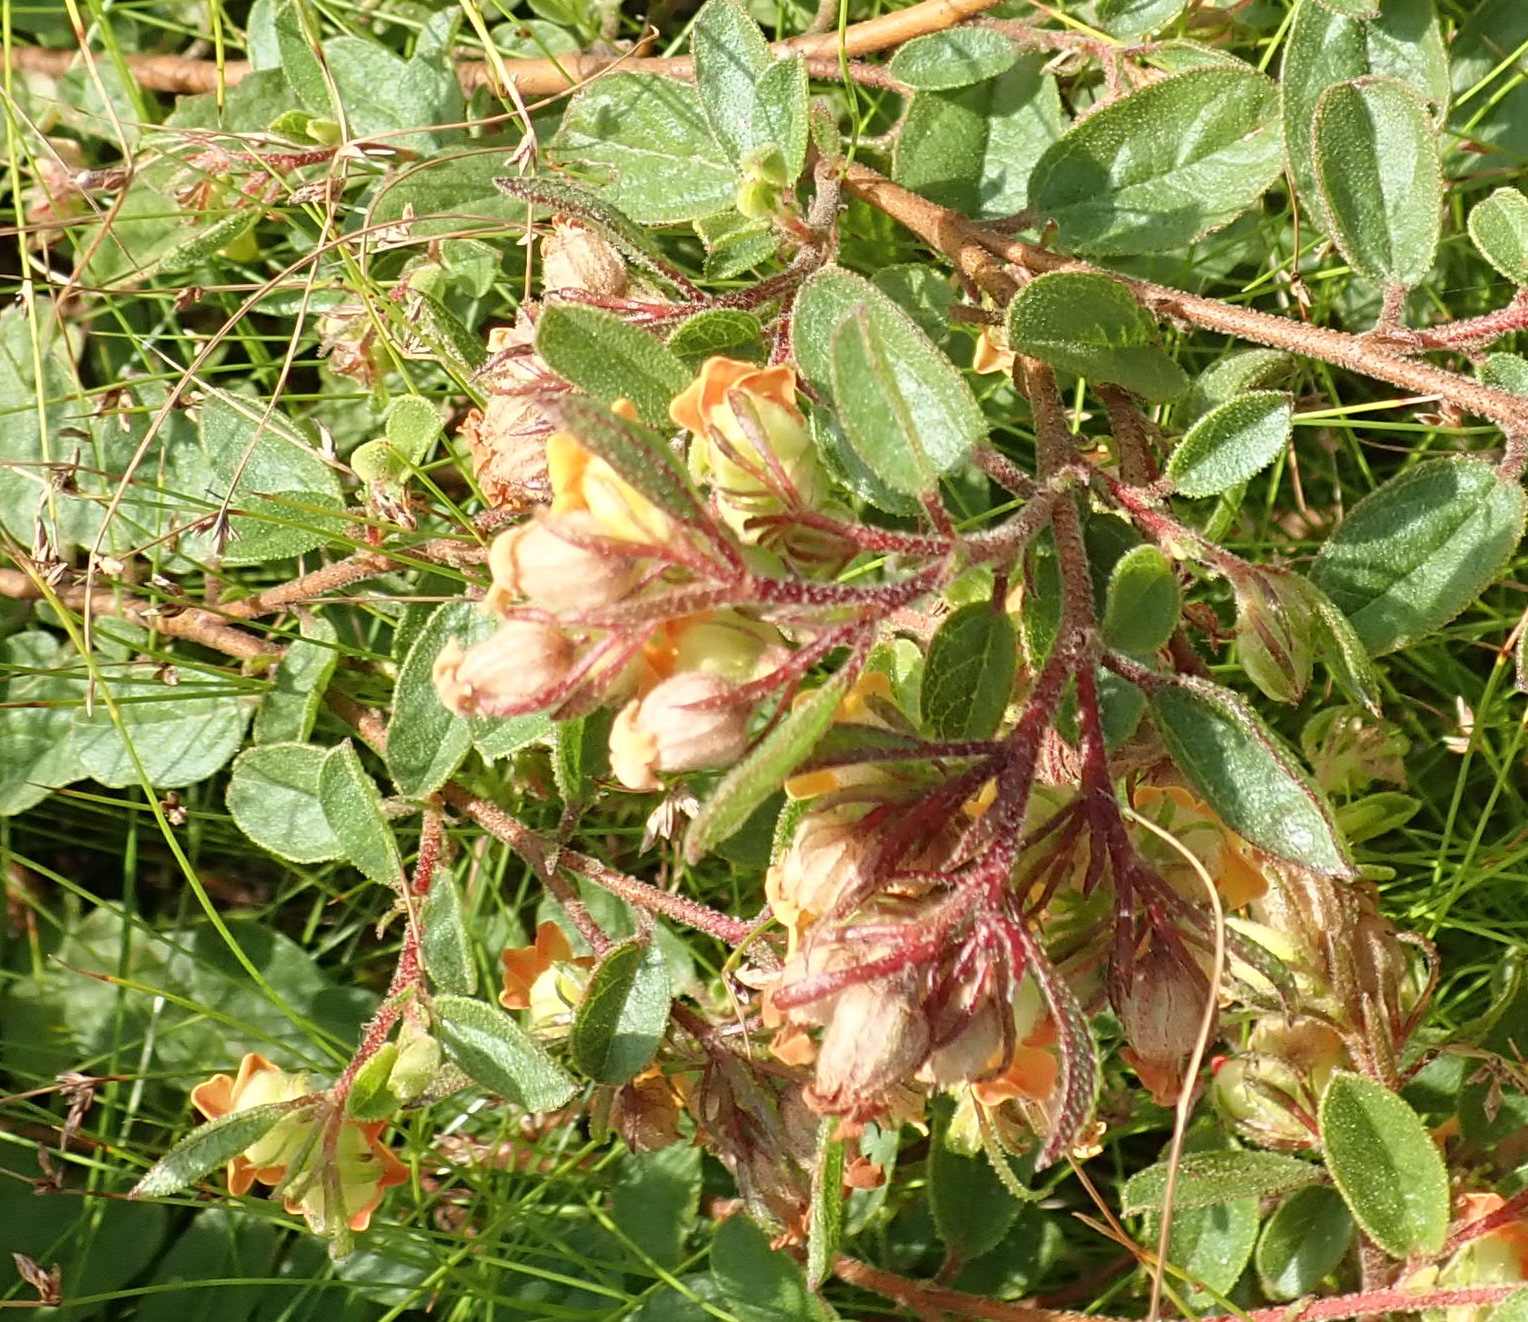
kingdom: Plantae
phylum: Tracheophyta
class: Magnoliopsida
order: Malvales
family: Malvaceae
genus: Hermannia
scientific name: Hermannia salviifolia
